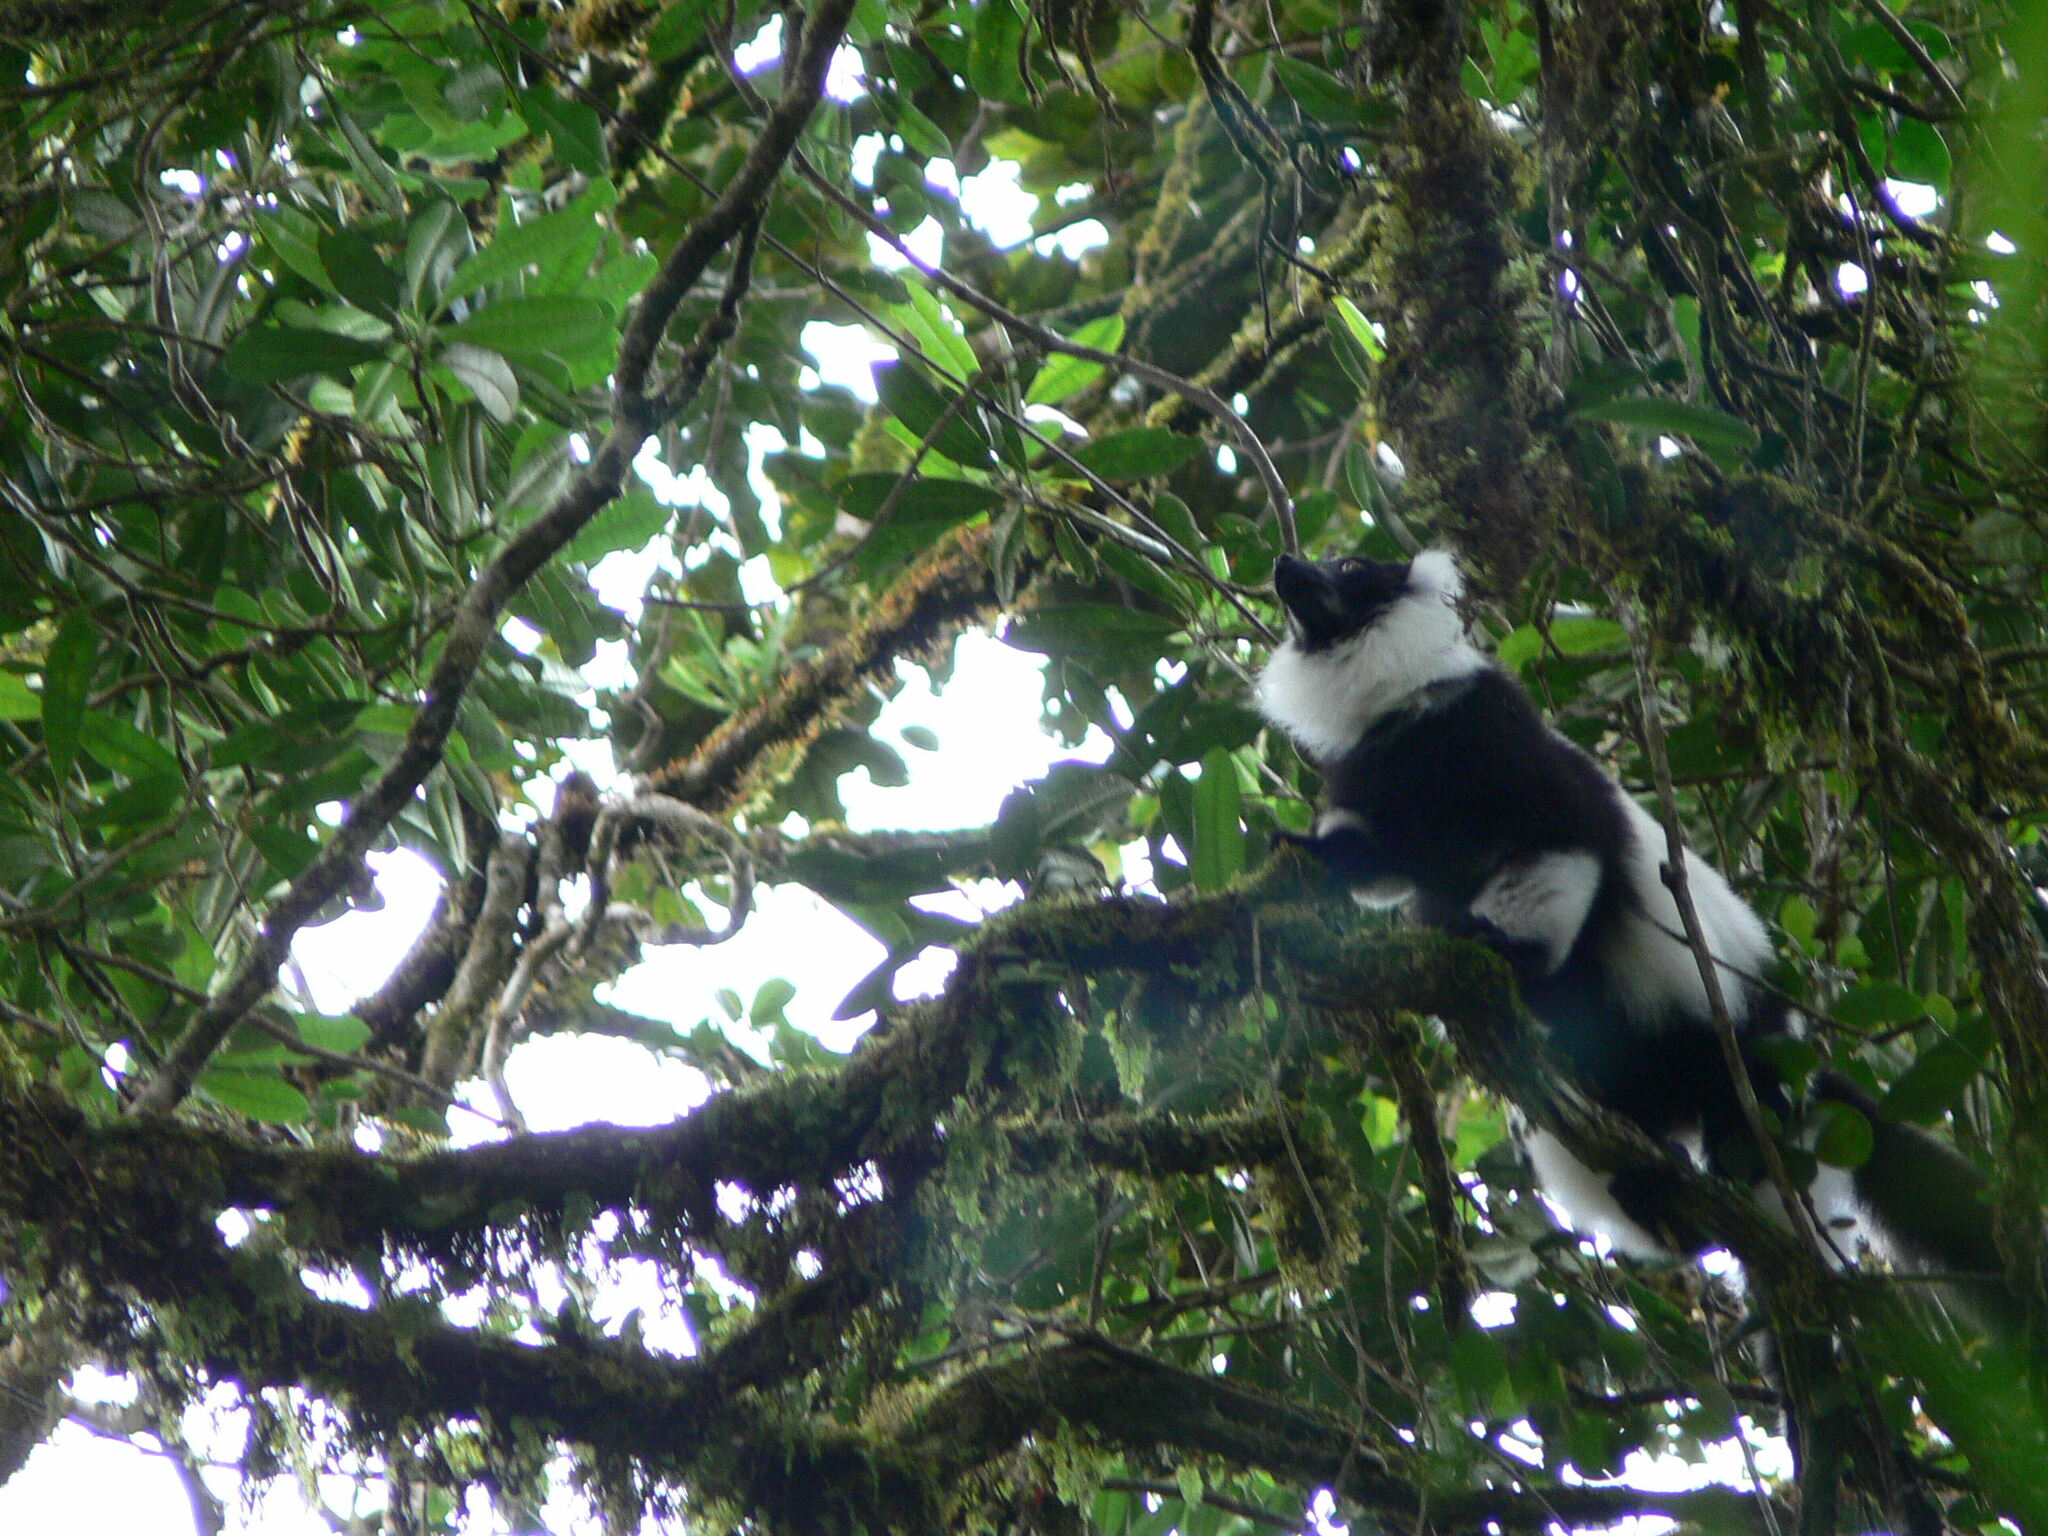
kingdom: Animalia
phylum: Chordata
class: Mammalia
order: Primates
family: Lemuridae
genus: Varecia
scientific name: Varecia variegata
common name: Black-and-white ruffed lemur
